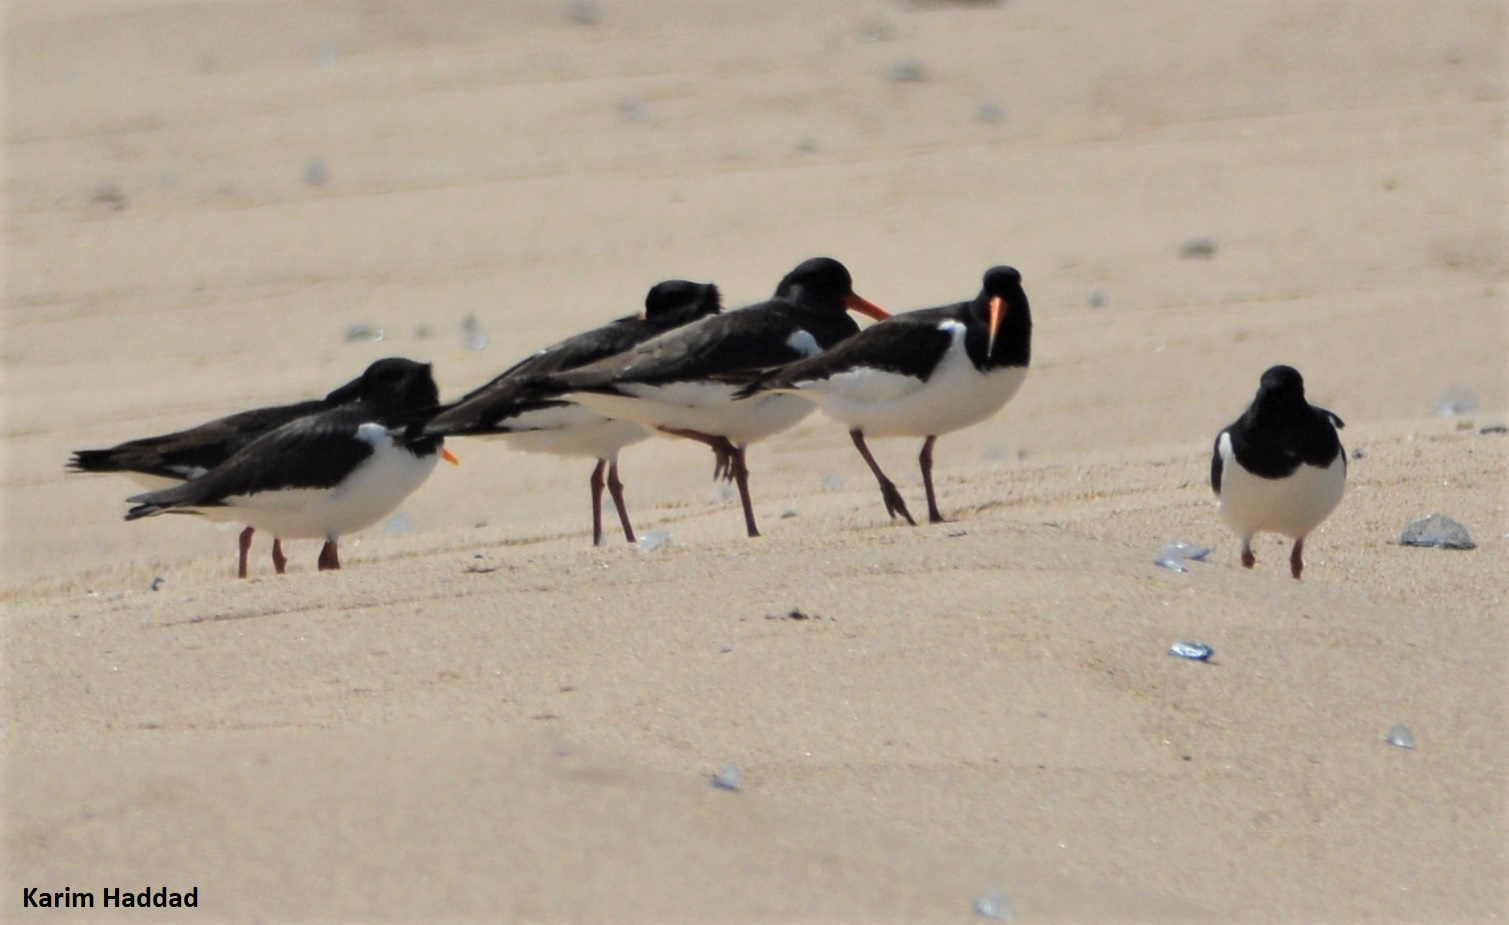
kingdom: Animalia
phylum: Chordata
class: Aves
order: Charadriiformes
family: Haematopodidae
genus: Haematopus
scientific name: Haematopus ostralegus
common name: Eurasian oystercatcher
